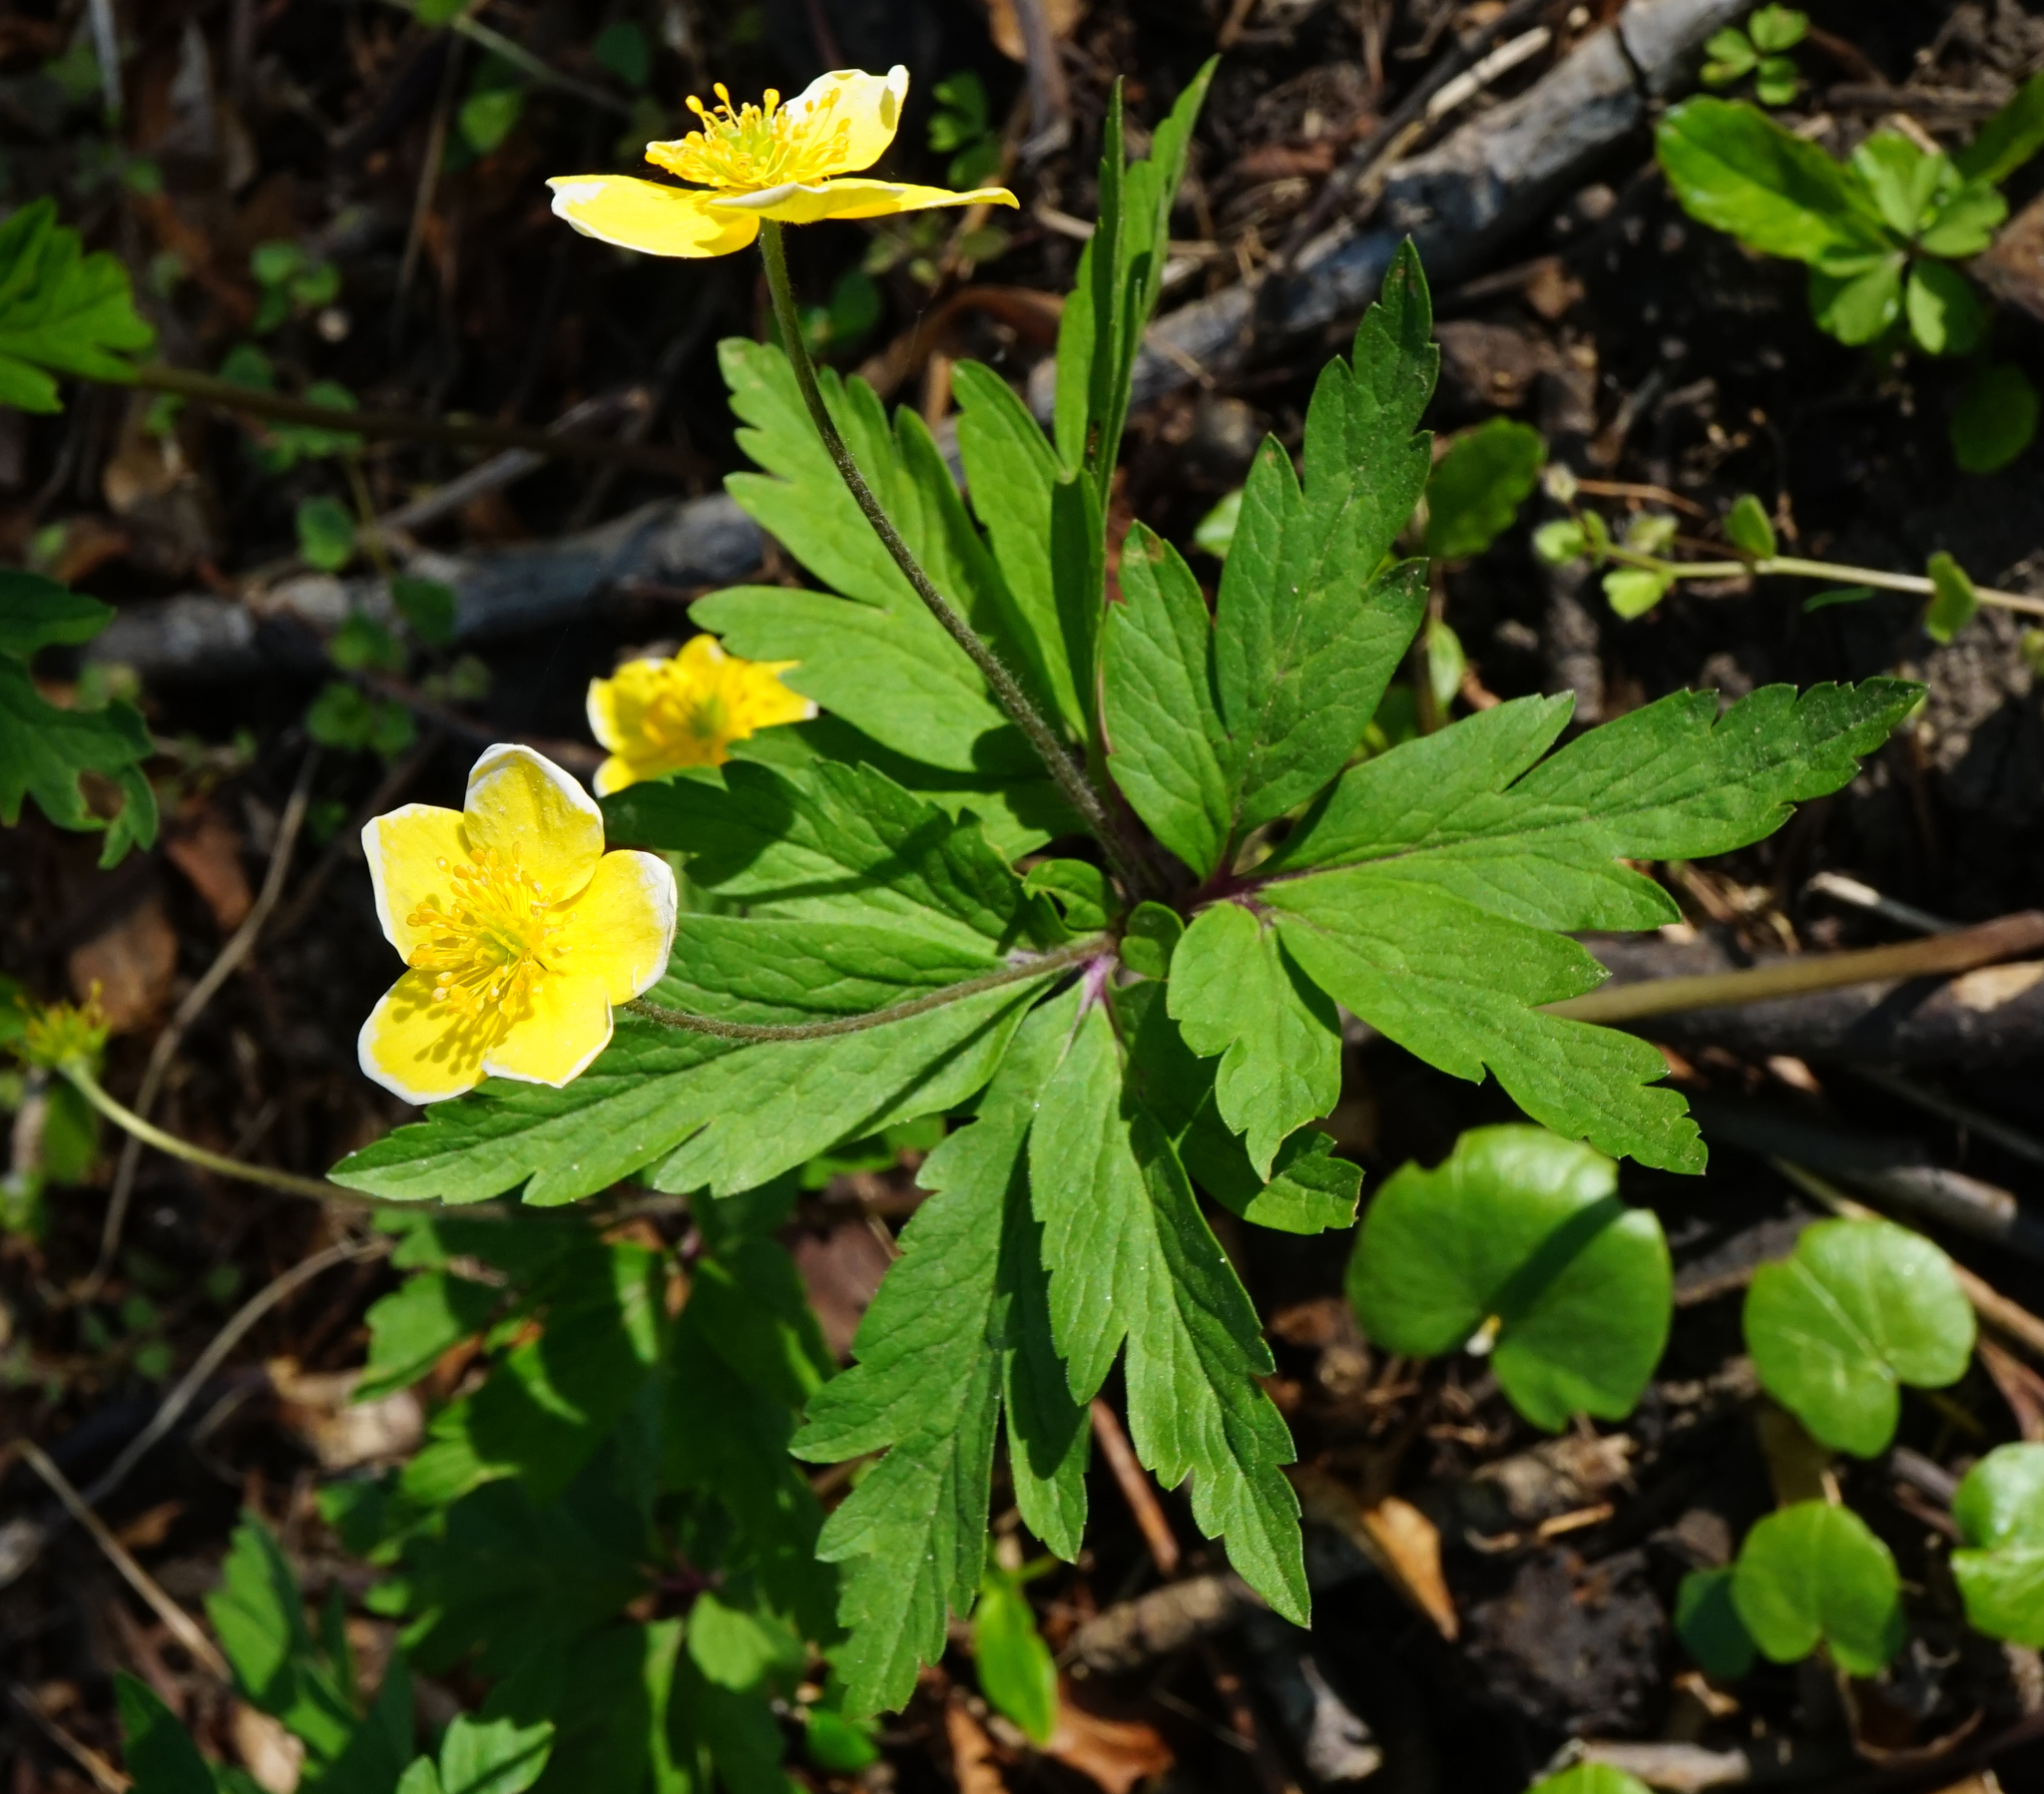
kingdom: Plantae
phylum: Tracheophyta
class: Magnoliopsida
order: Ranunculales
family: Ranunculaceae
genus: Anemone
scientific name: Anemone ranunculoides
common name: Yellow anemone
